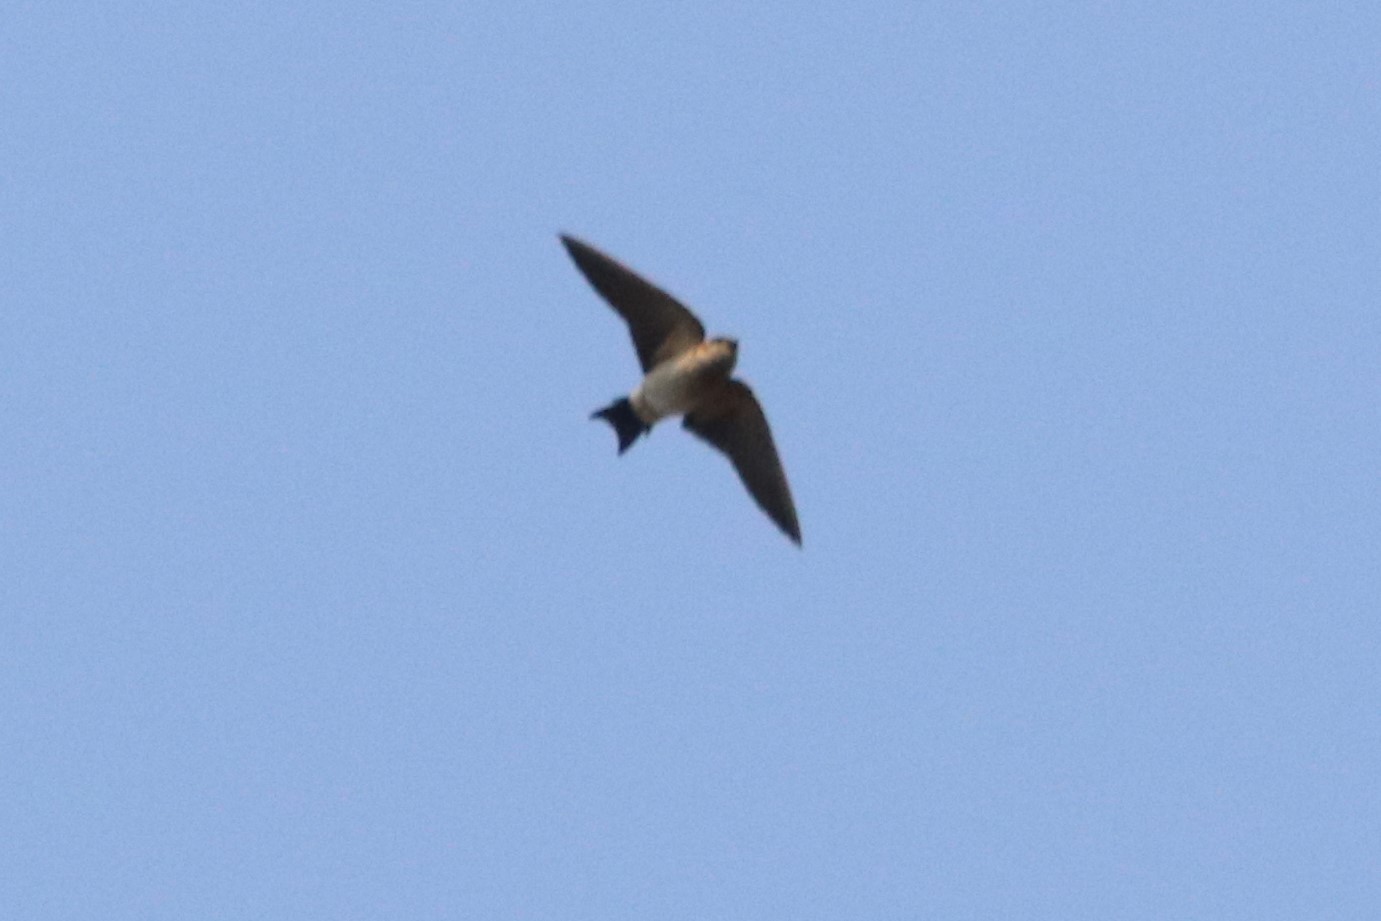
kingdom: Animalia
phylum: Chordata
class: Aves
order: Passeriformes
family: Hirundinidae
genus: Cecropis
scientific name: Cecropis daurica
